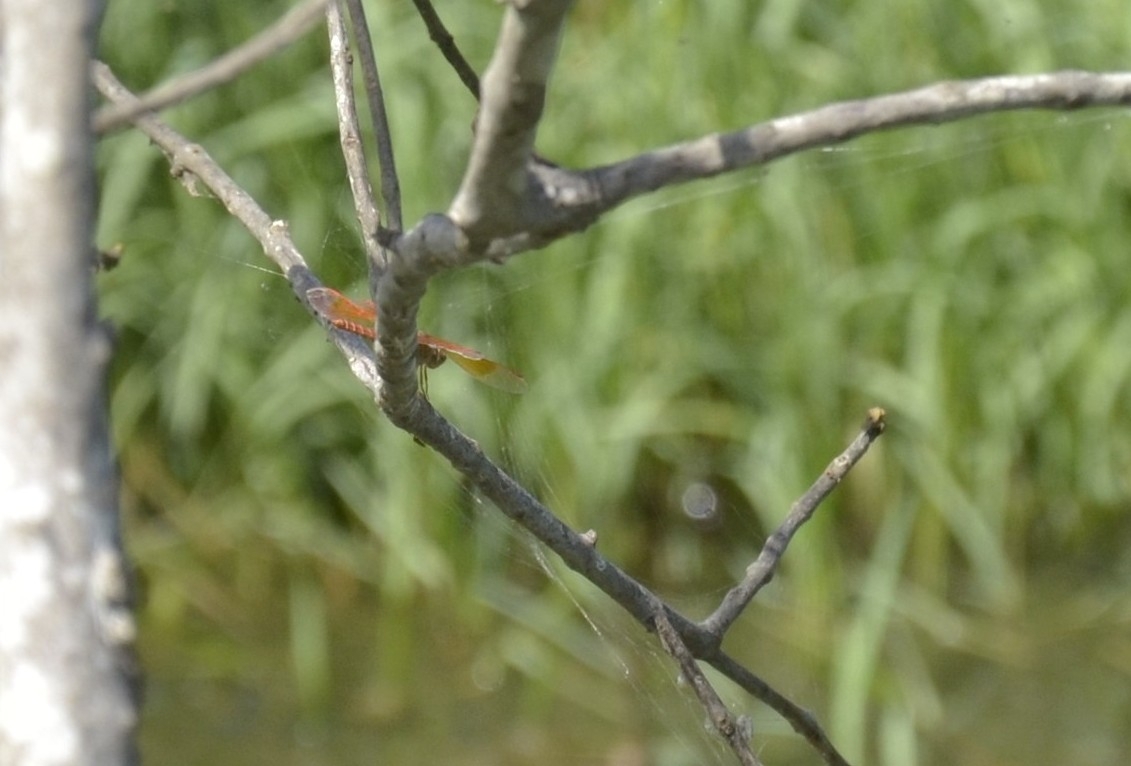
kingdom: Animalia
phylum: Arthropoda
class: Insecta
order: Odonata
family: Libellulidae
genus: Brachythemis
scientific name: Brachythemis contaminata
